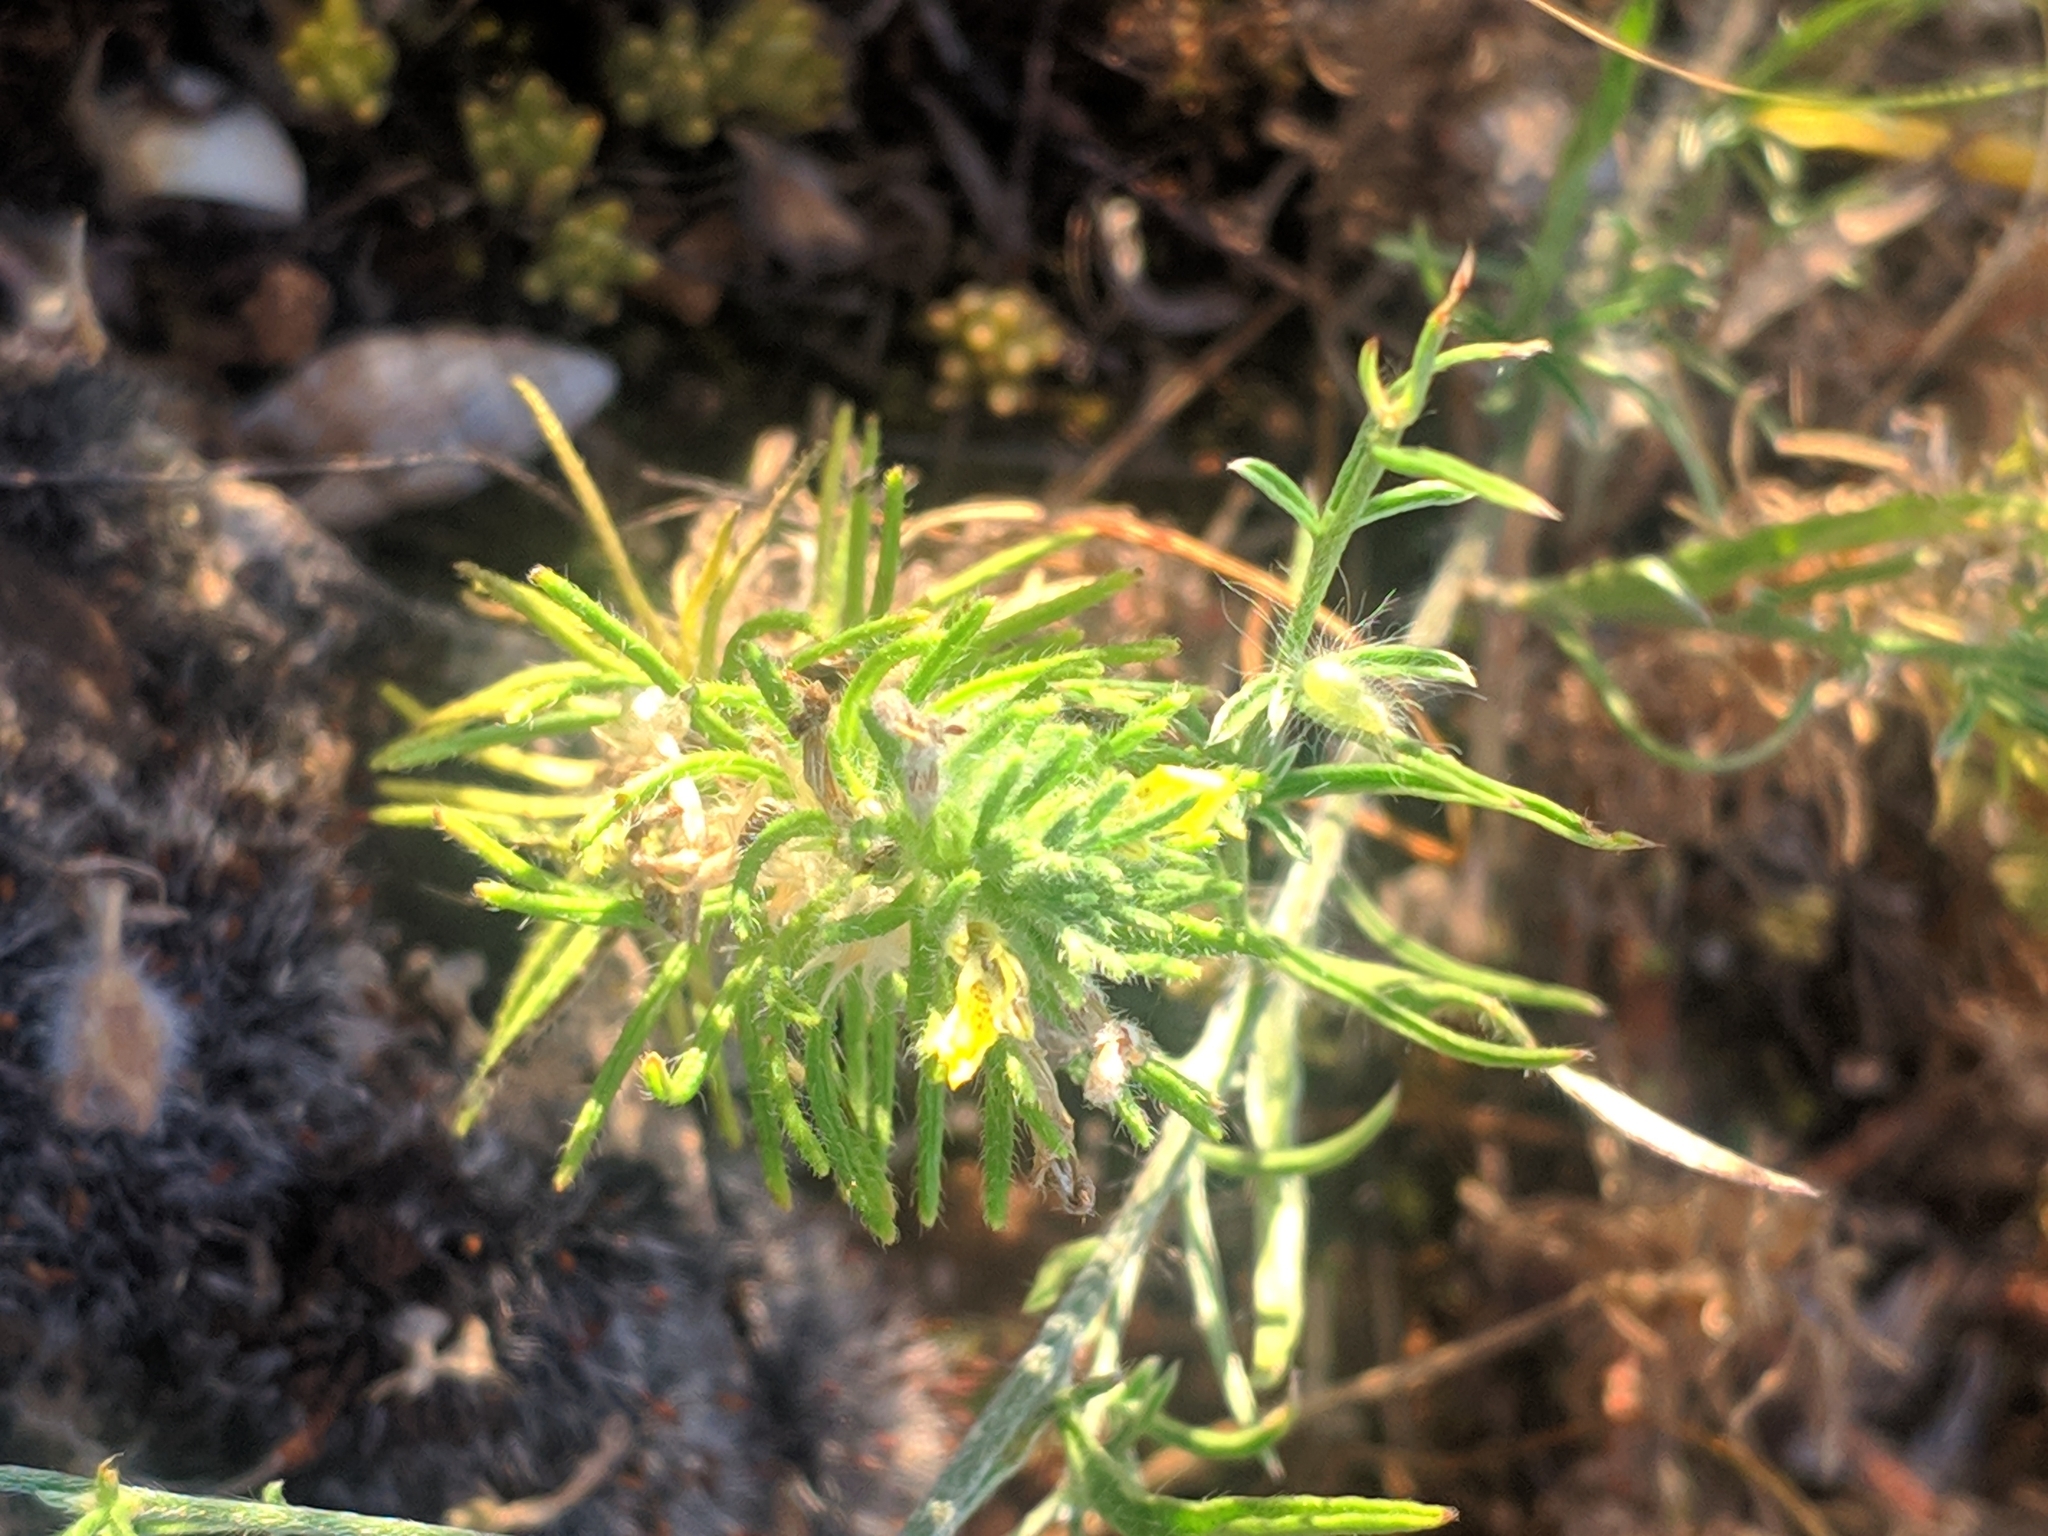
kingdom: Plantae
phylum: Tracheophyta
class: Magnoliopsida
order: Lamiales
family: Lamiaceae
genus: Ajuga
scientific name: Ajuga chamaepitys
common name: Ground-pine
